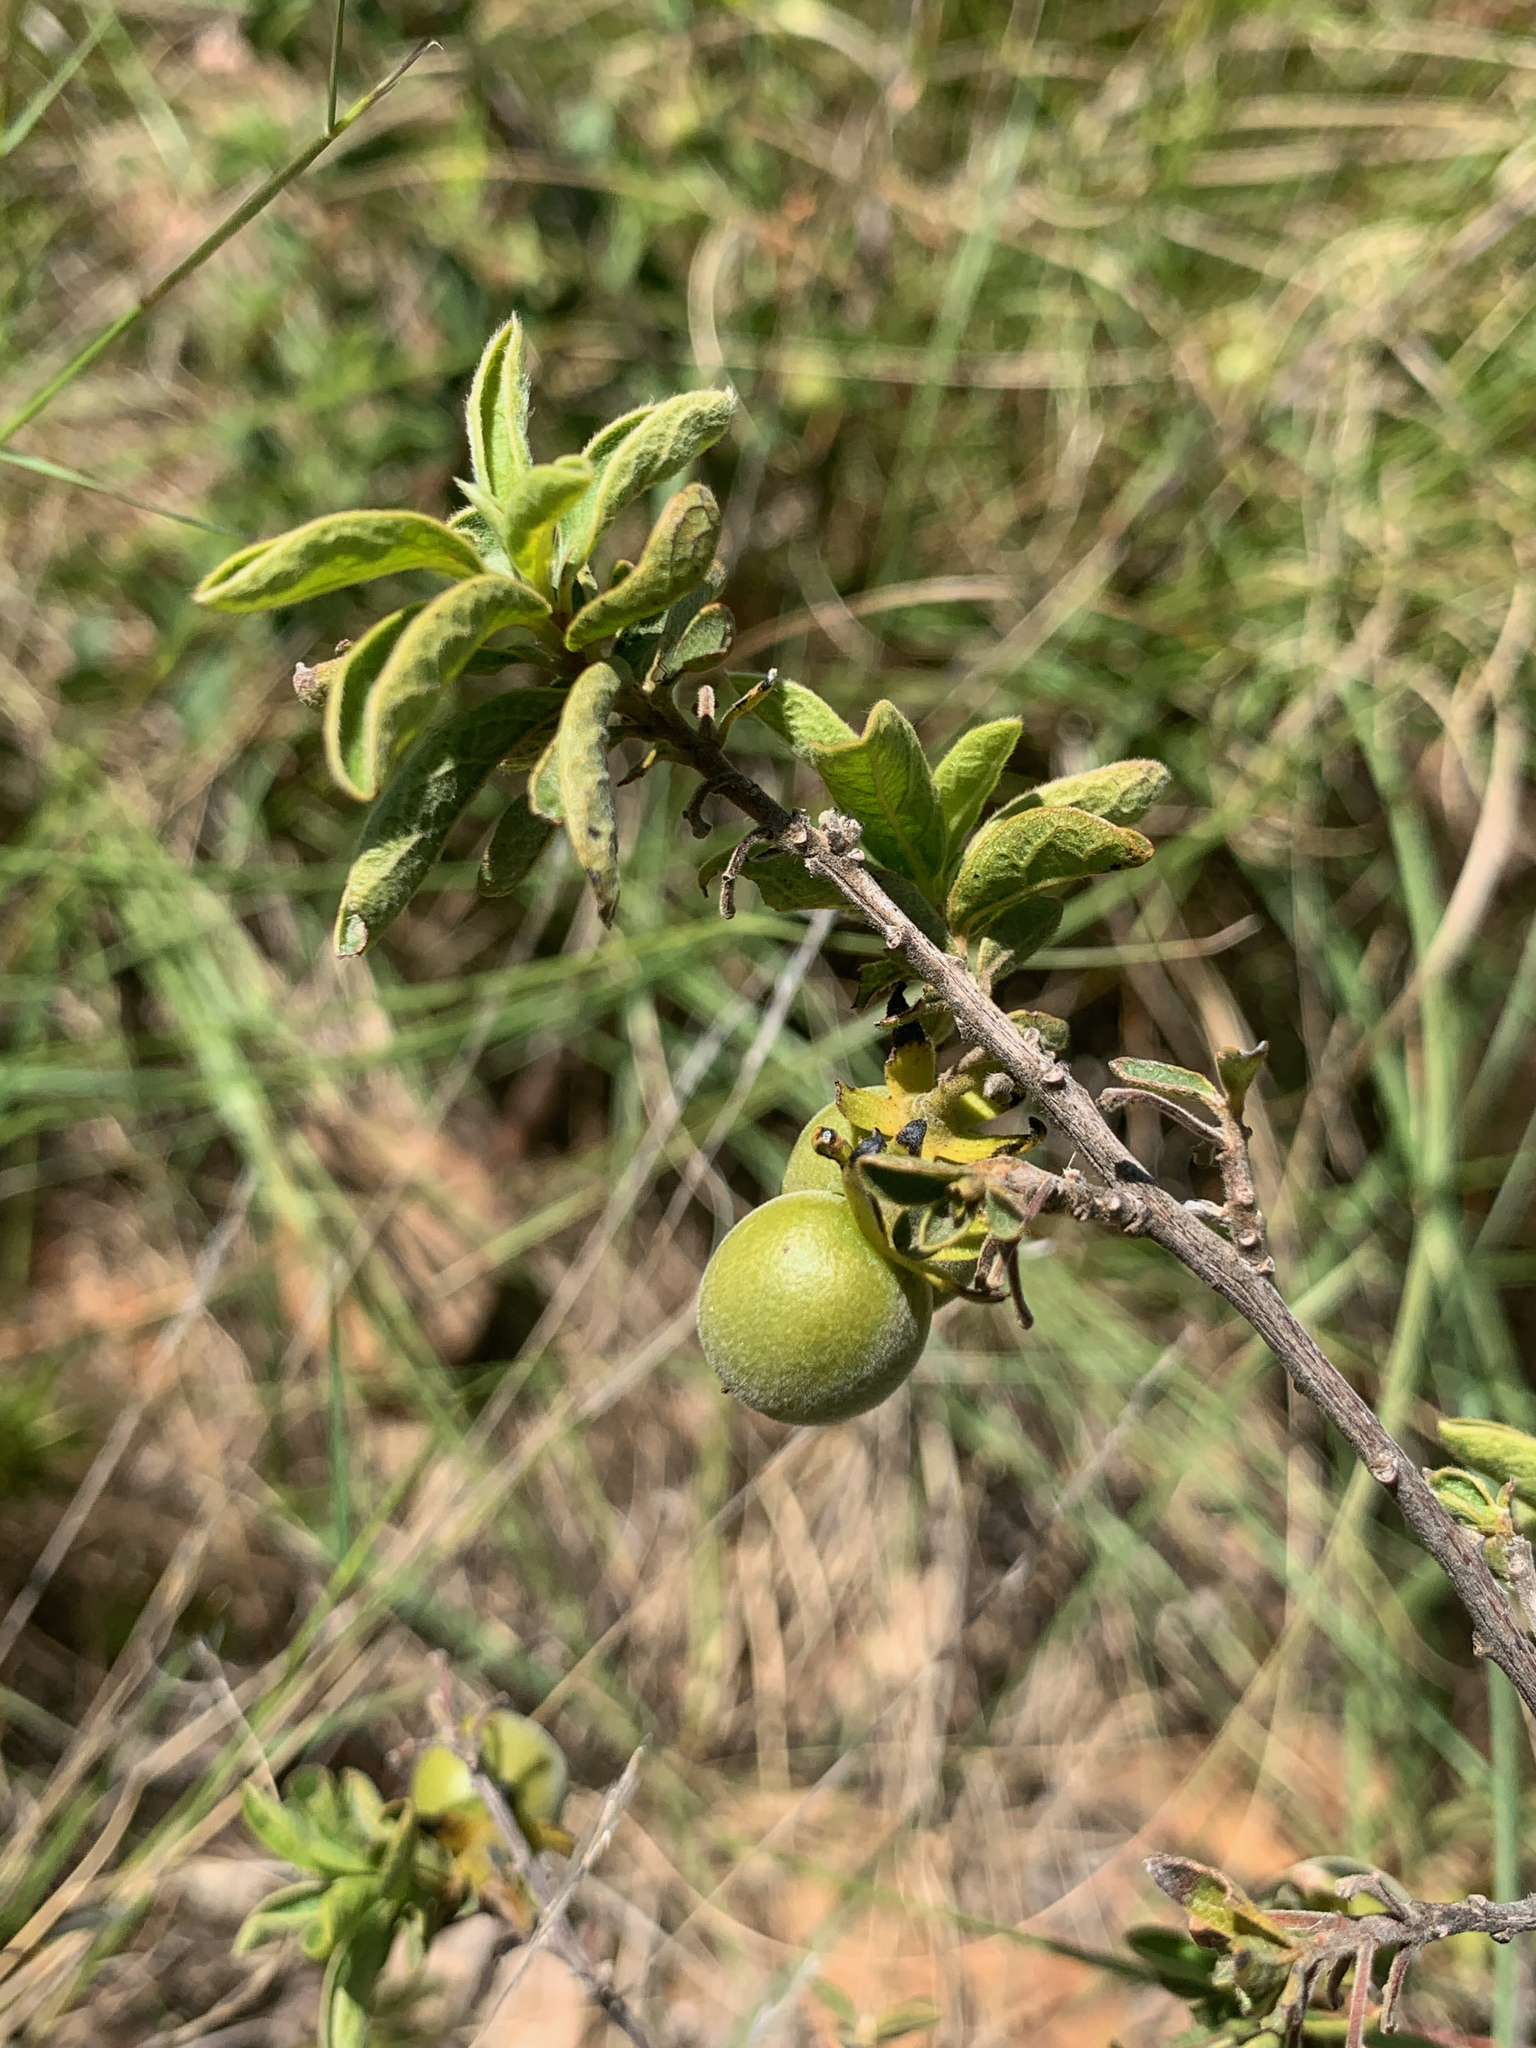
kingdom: Plantae
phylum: Tracheophyta
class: Magnoliopsida
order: Ericales
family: Ebenaceae
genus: Diospyros
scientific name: Diospyros lycioides
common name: Red star apple
